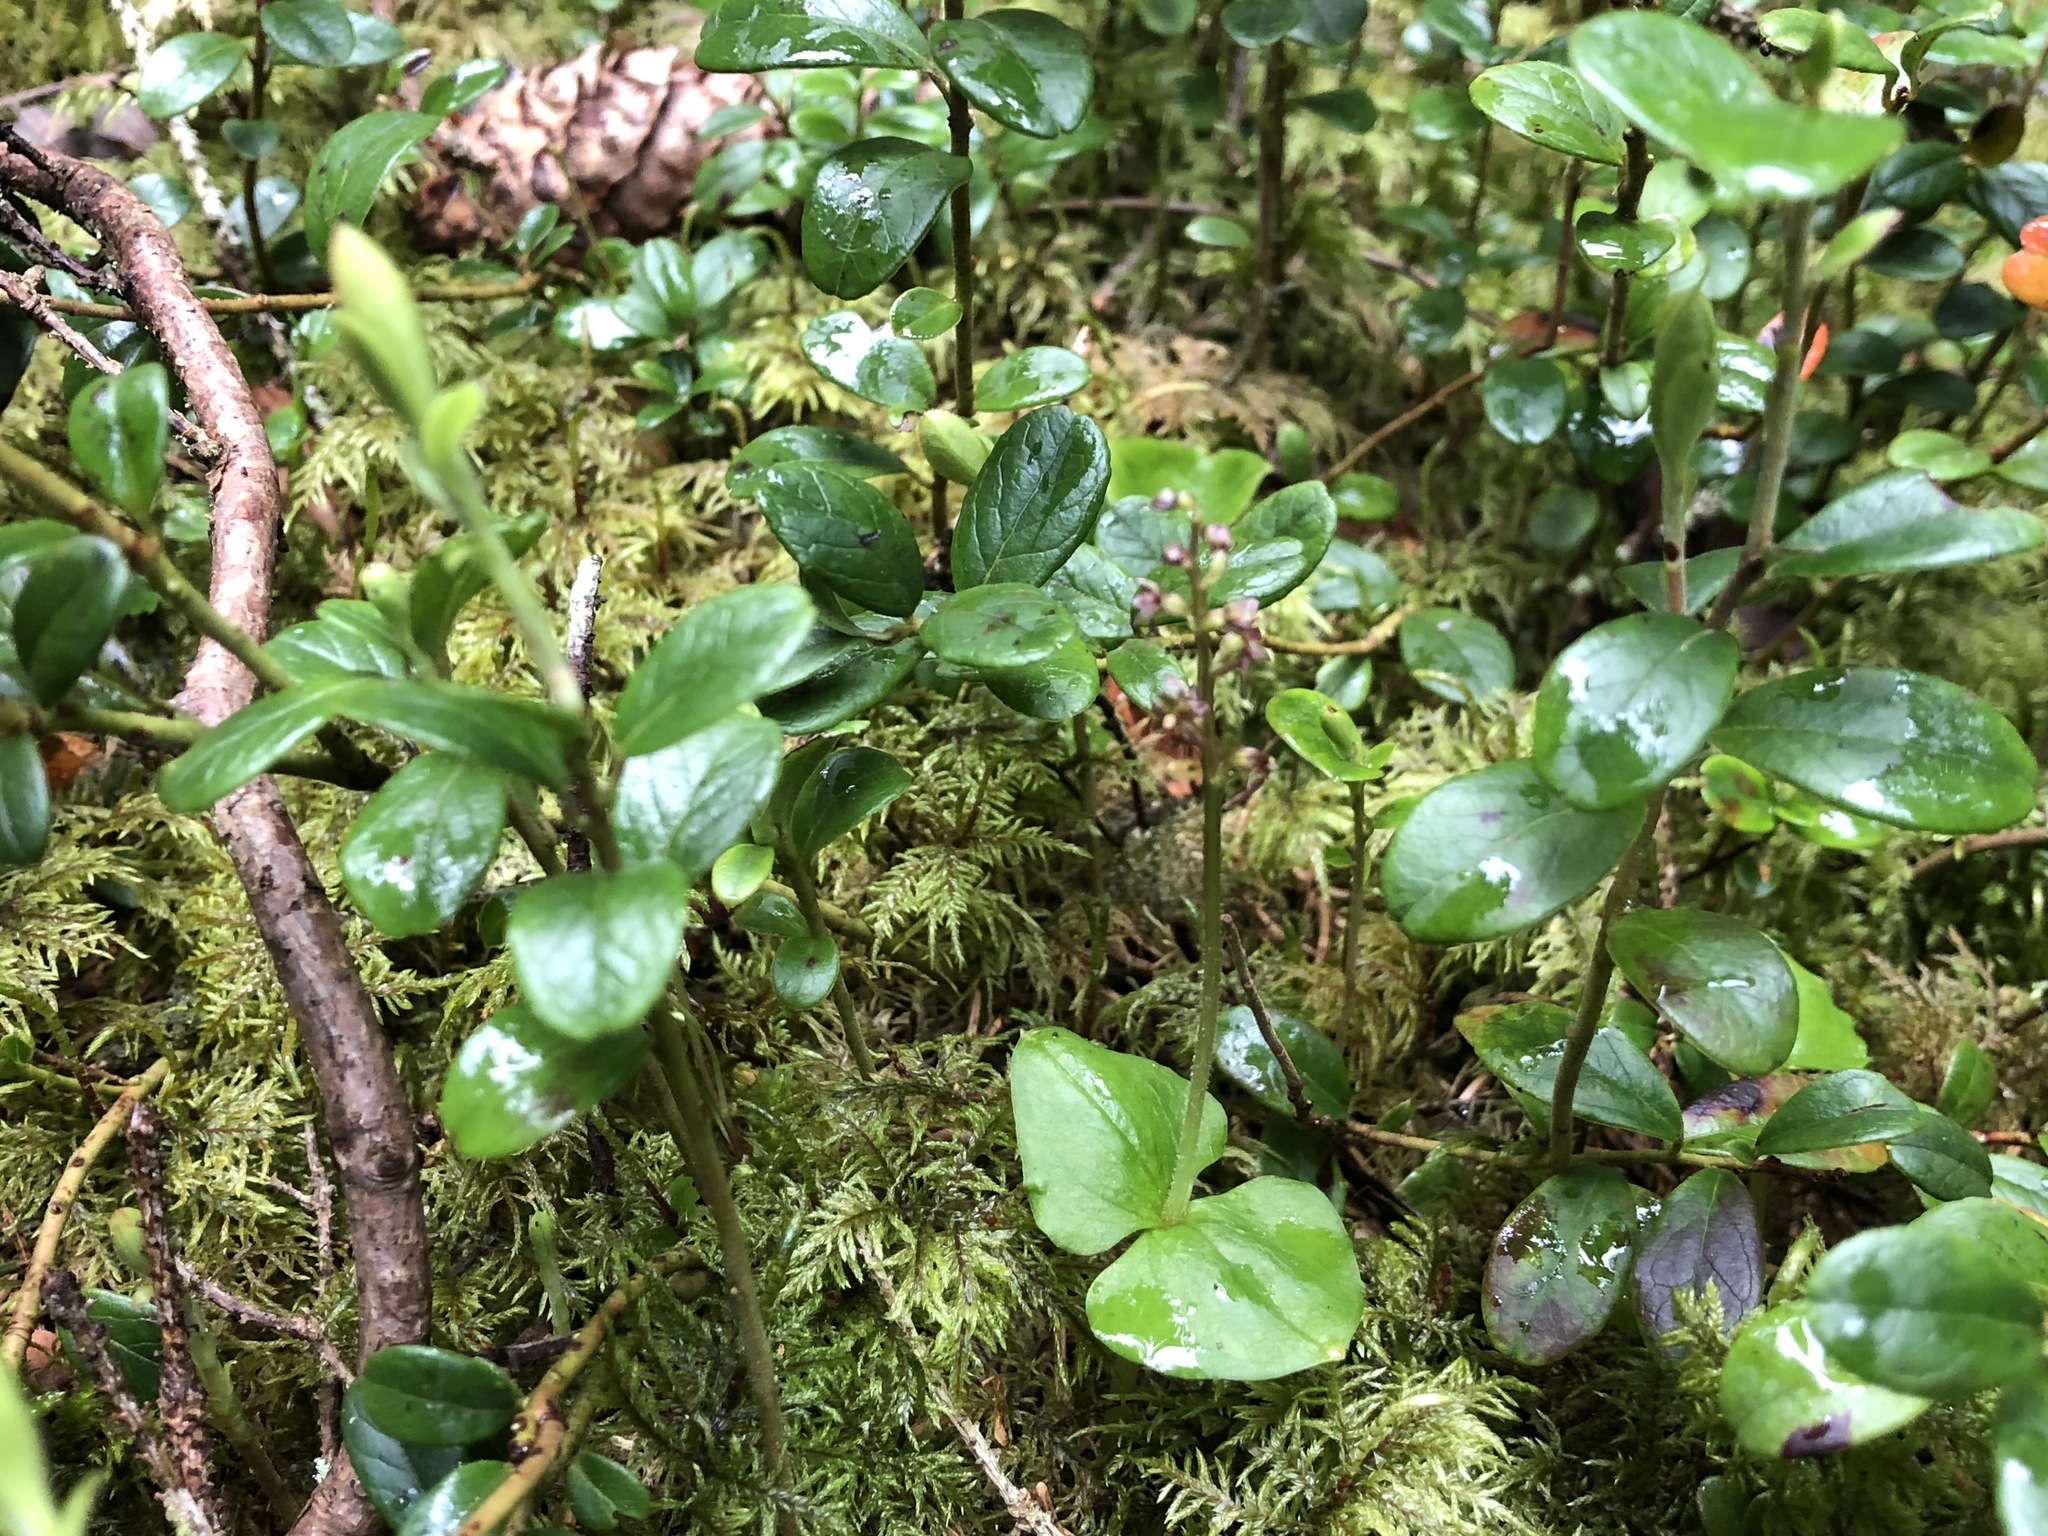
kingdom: Plantae
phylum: Tracheophyta
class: Liliopsida
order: Asparagales
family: Orchidaceae
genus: Neottia
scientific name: Neottia cordata
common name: Lesser twayblade
